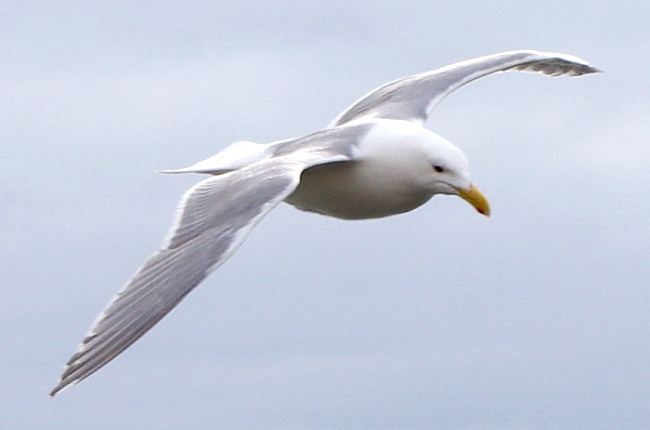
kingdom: Animalia
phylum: Chordata
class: Aves
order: Charadriiformes
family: Laridae
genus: Larus
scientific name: Larus glaucescens
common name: Glaucous-winged gull
